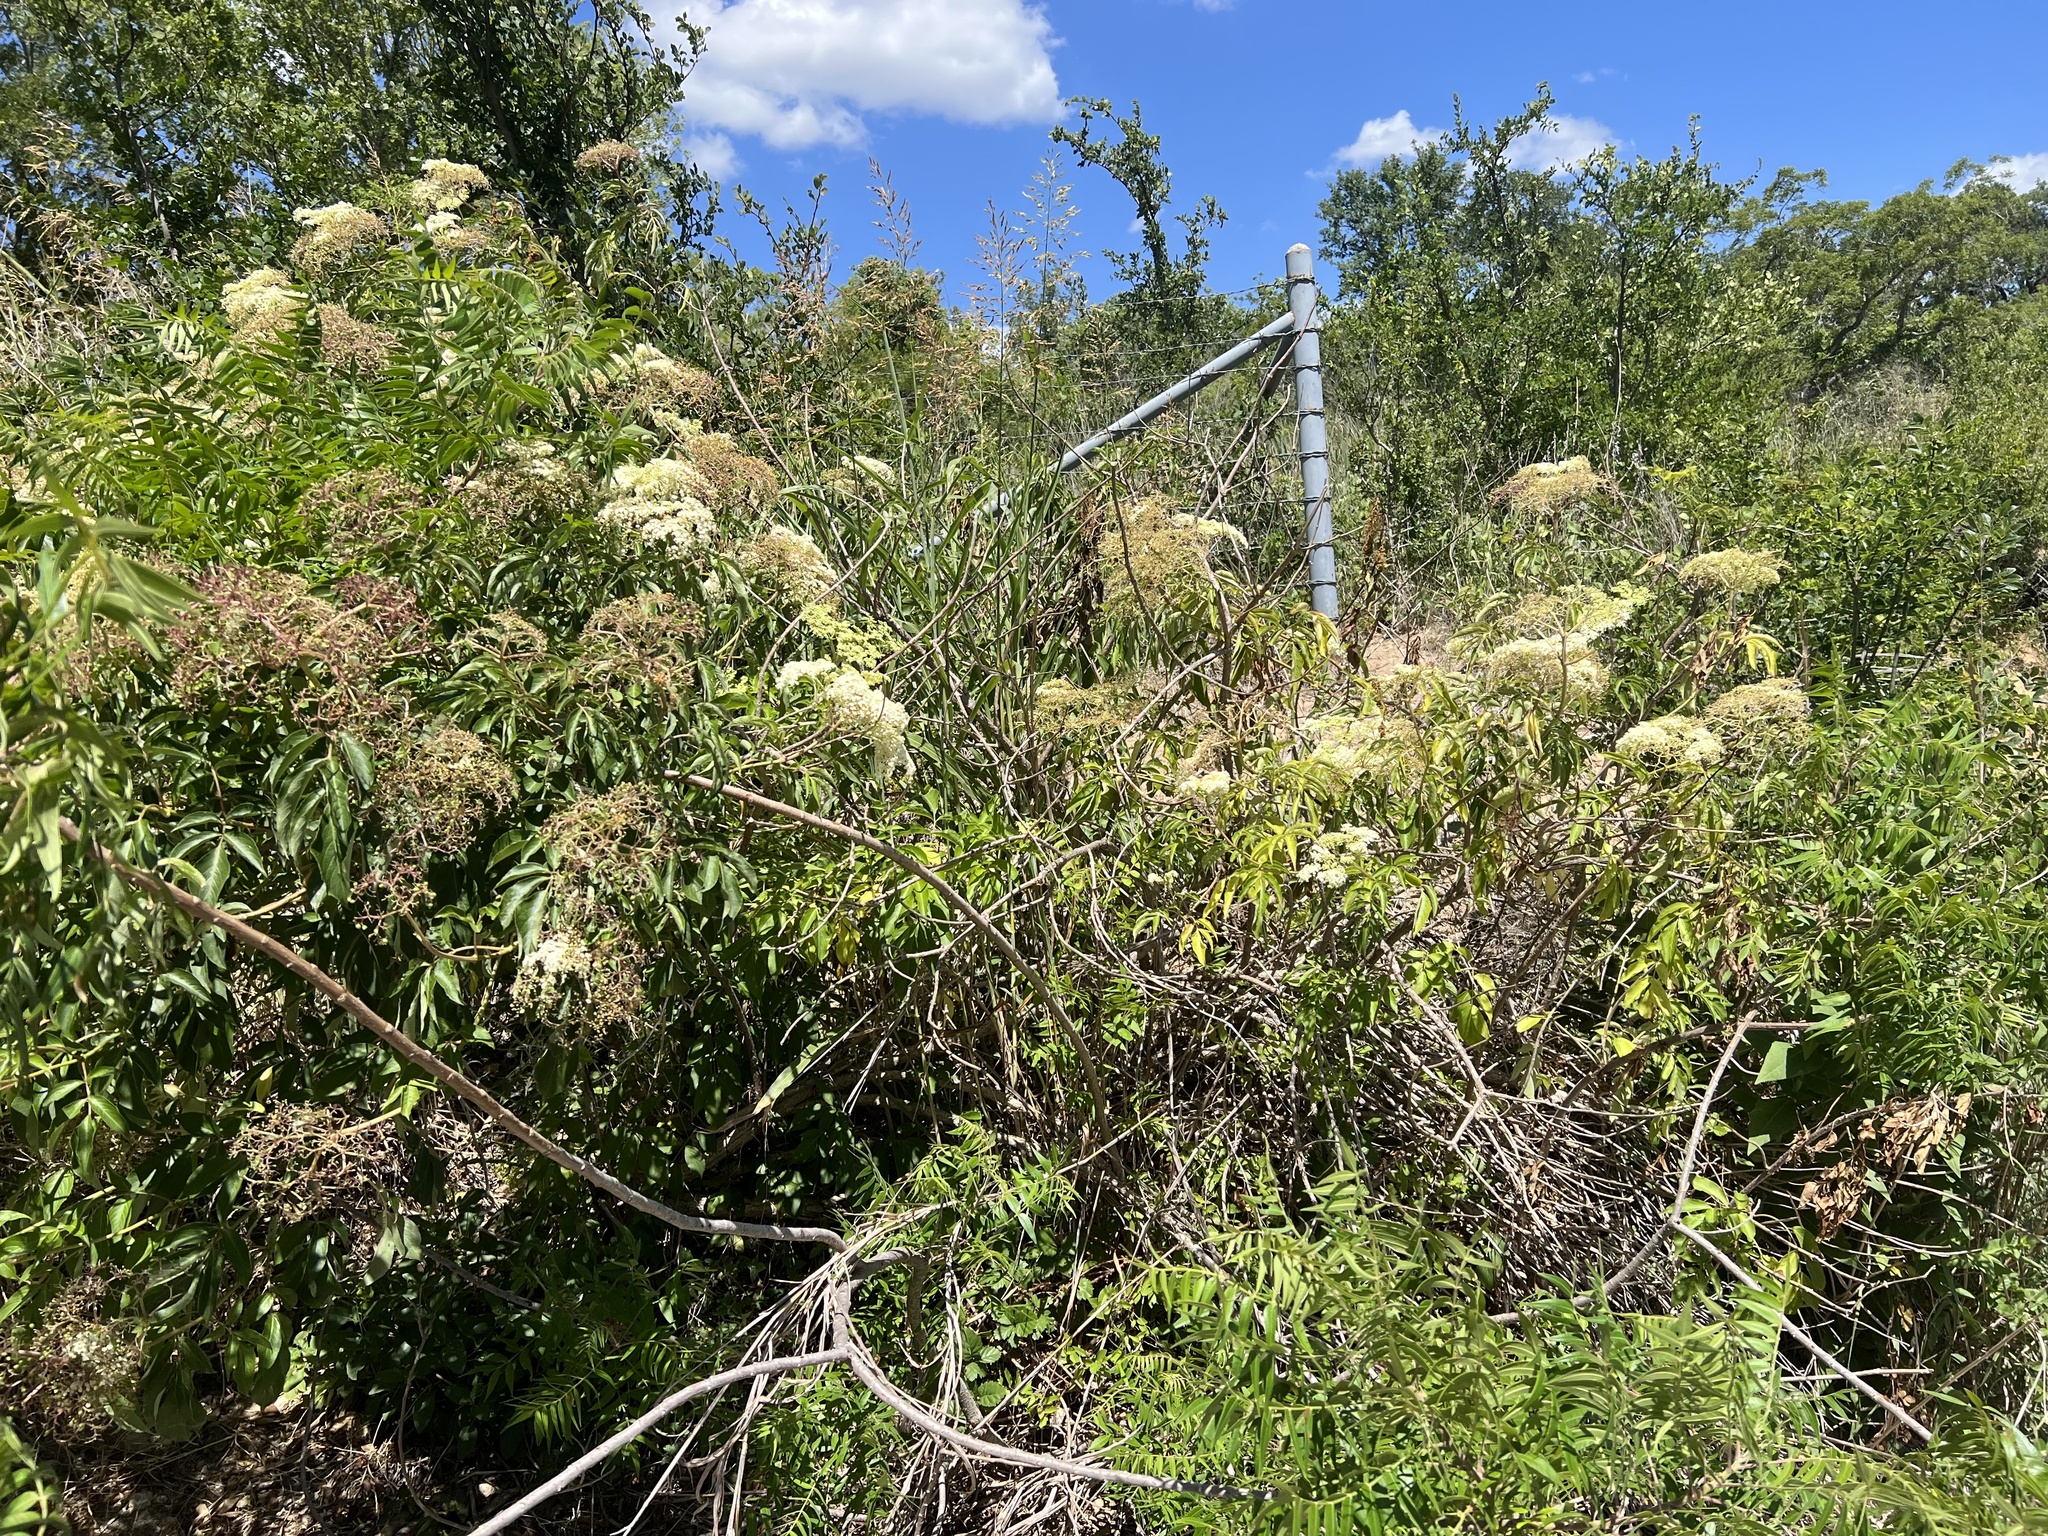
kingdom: Plantae
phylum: Tracheophyta
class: Magnoliopsida
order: Dipsacales
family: Viburnaceae
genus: Sambucus
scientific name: Sambucus canadensis
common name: American elder
